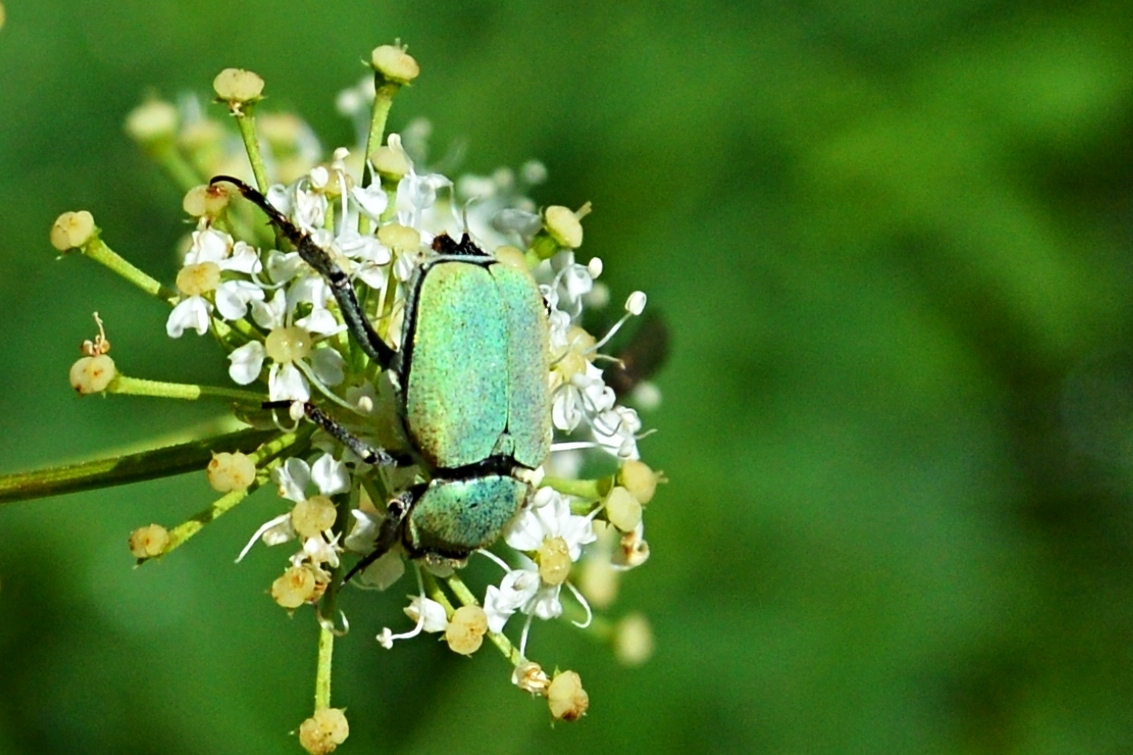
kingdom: Animalia
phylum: Arthropoda
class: Insecta
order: Coleoptera
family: Scarabaeidae
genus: Hoplia
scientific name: Hoplia argentea
